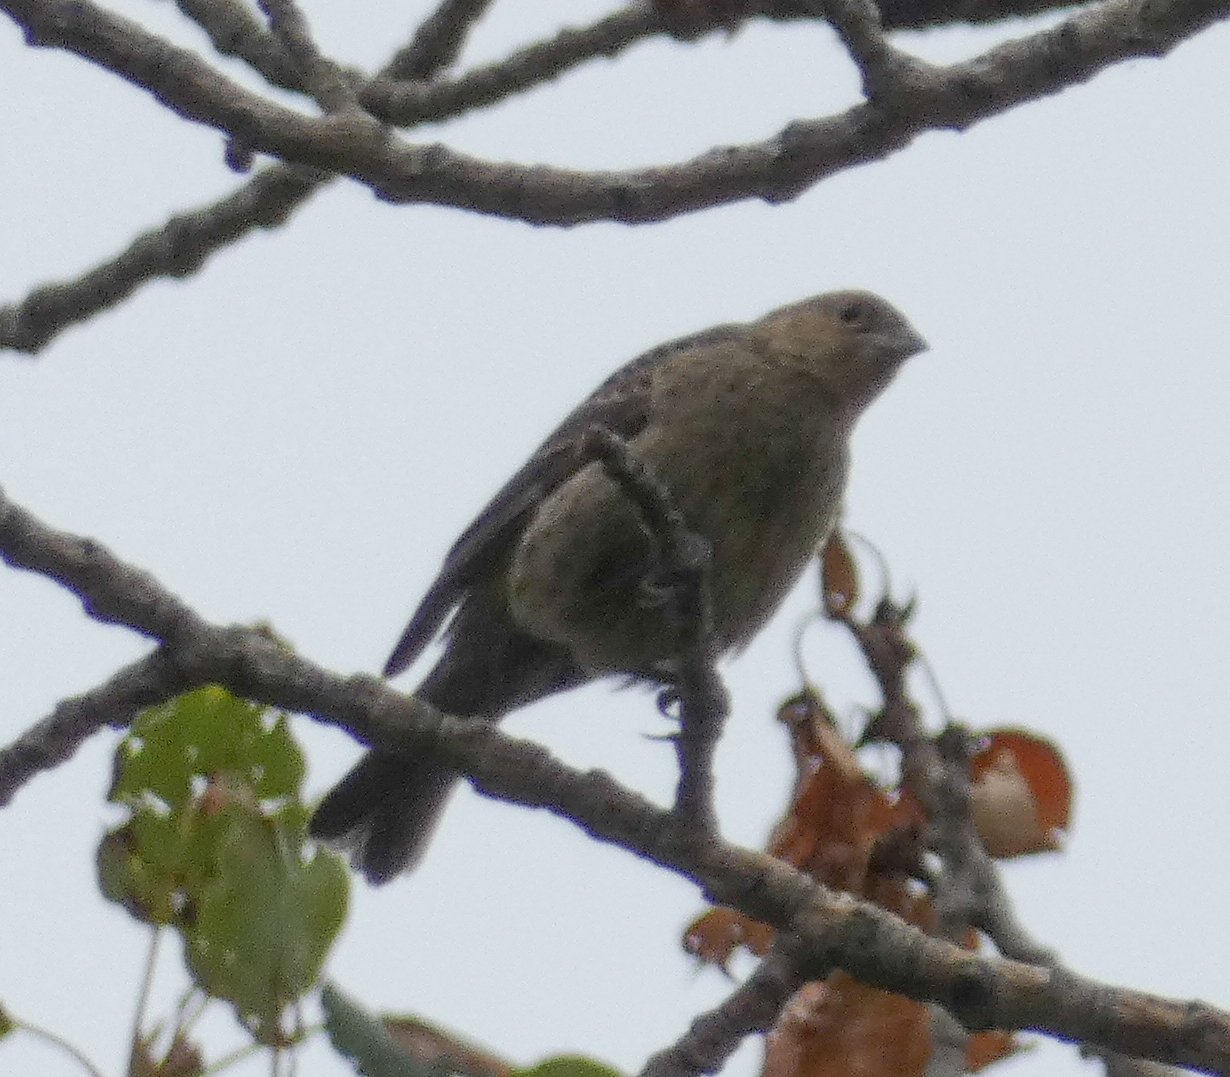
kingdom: Animalia
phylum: Chordata
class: Aves
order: Passeriformes
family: Icteridae
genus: Molothrus
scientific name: Molothrus ater
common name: Brown-headed cowbird
